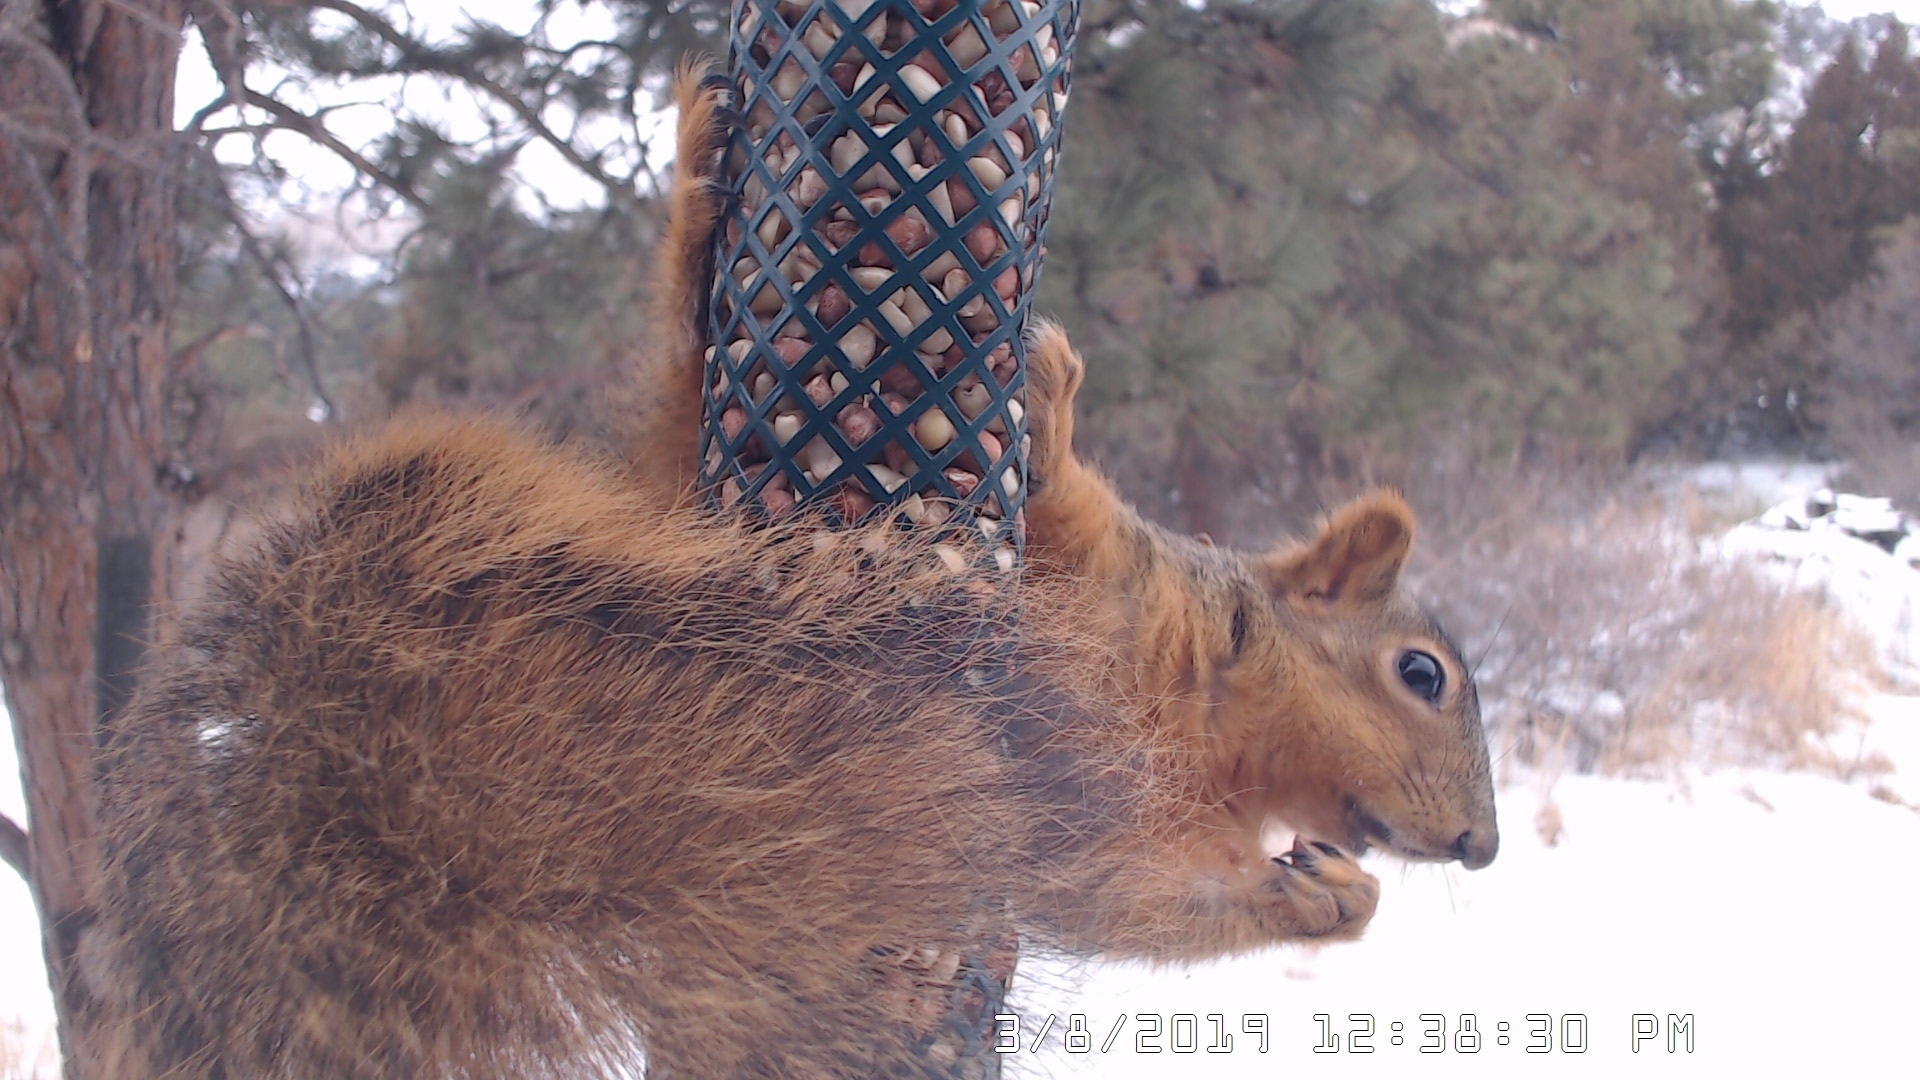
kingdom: Animalia
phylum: Chordata
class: Mammalia
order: Rodentia
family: Sciuridae
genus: Sciurus
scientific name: Sciurus niger
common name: Fox squirrel
